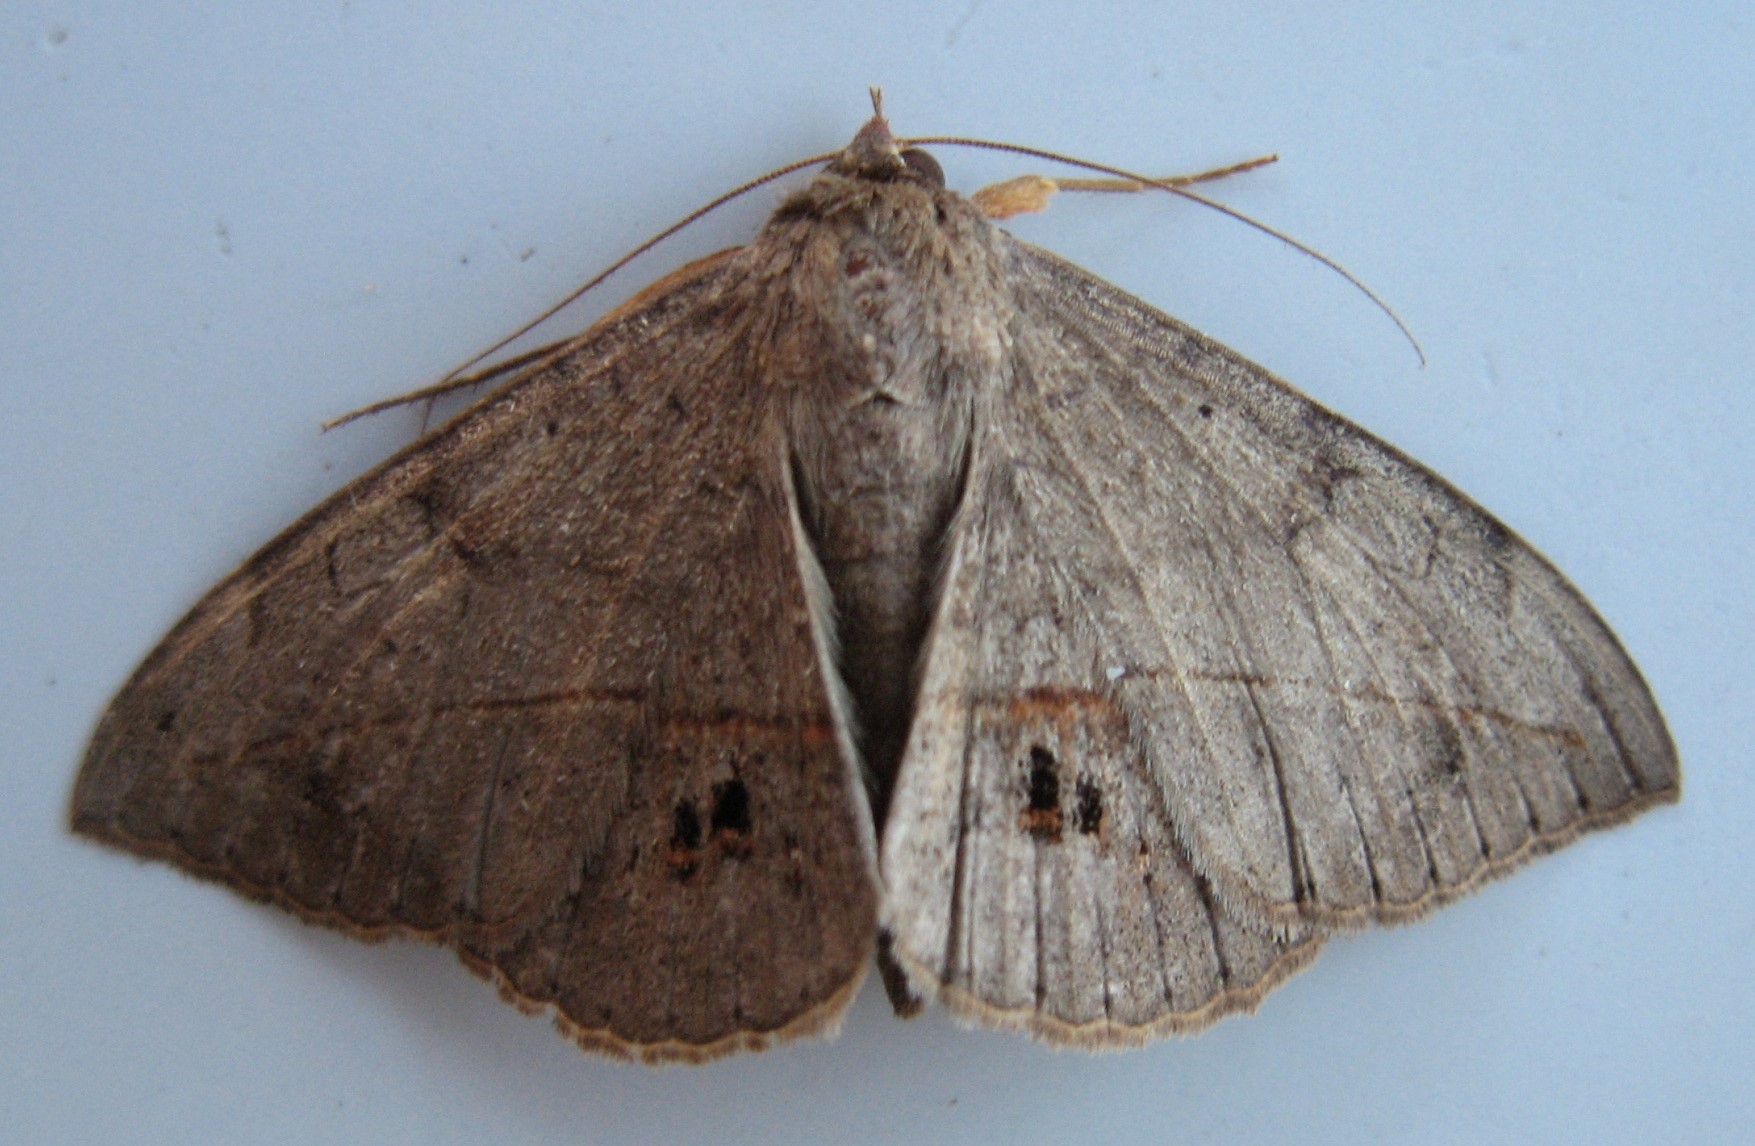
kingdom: Animalia
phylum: Arthropoda
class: Insecta
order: Lepidoptera
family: Erebidae
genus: Anticarsia
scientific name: Anticarsia gemmatalis
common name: Cutworm moth
